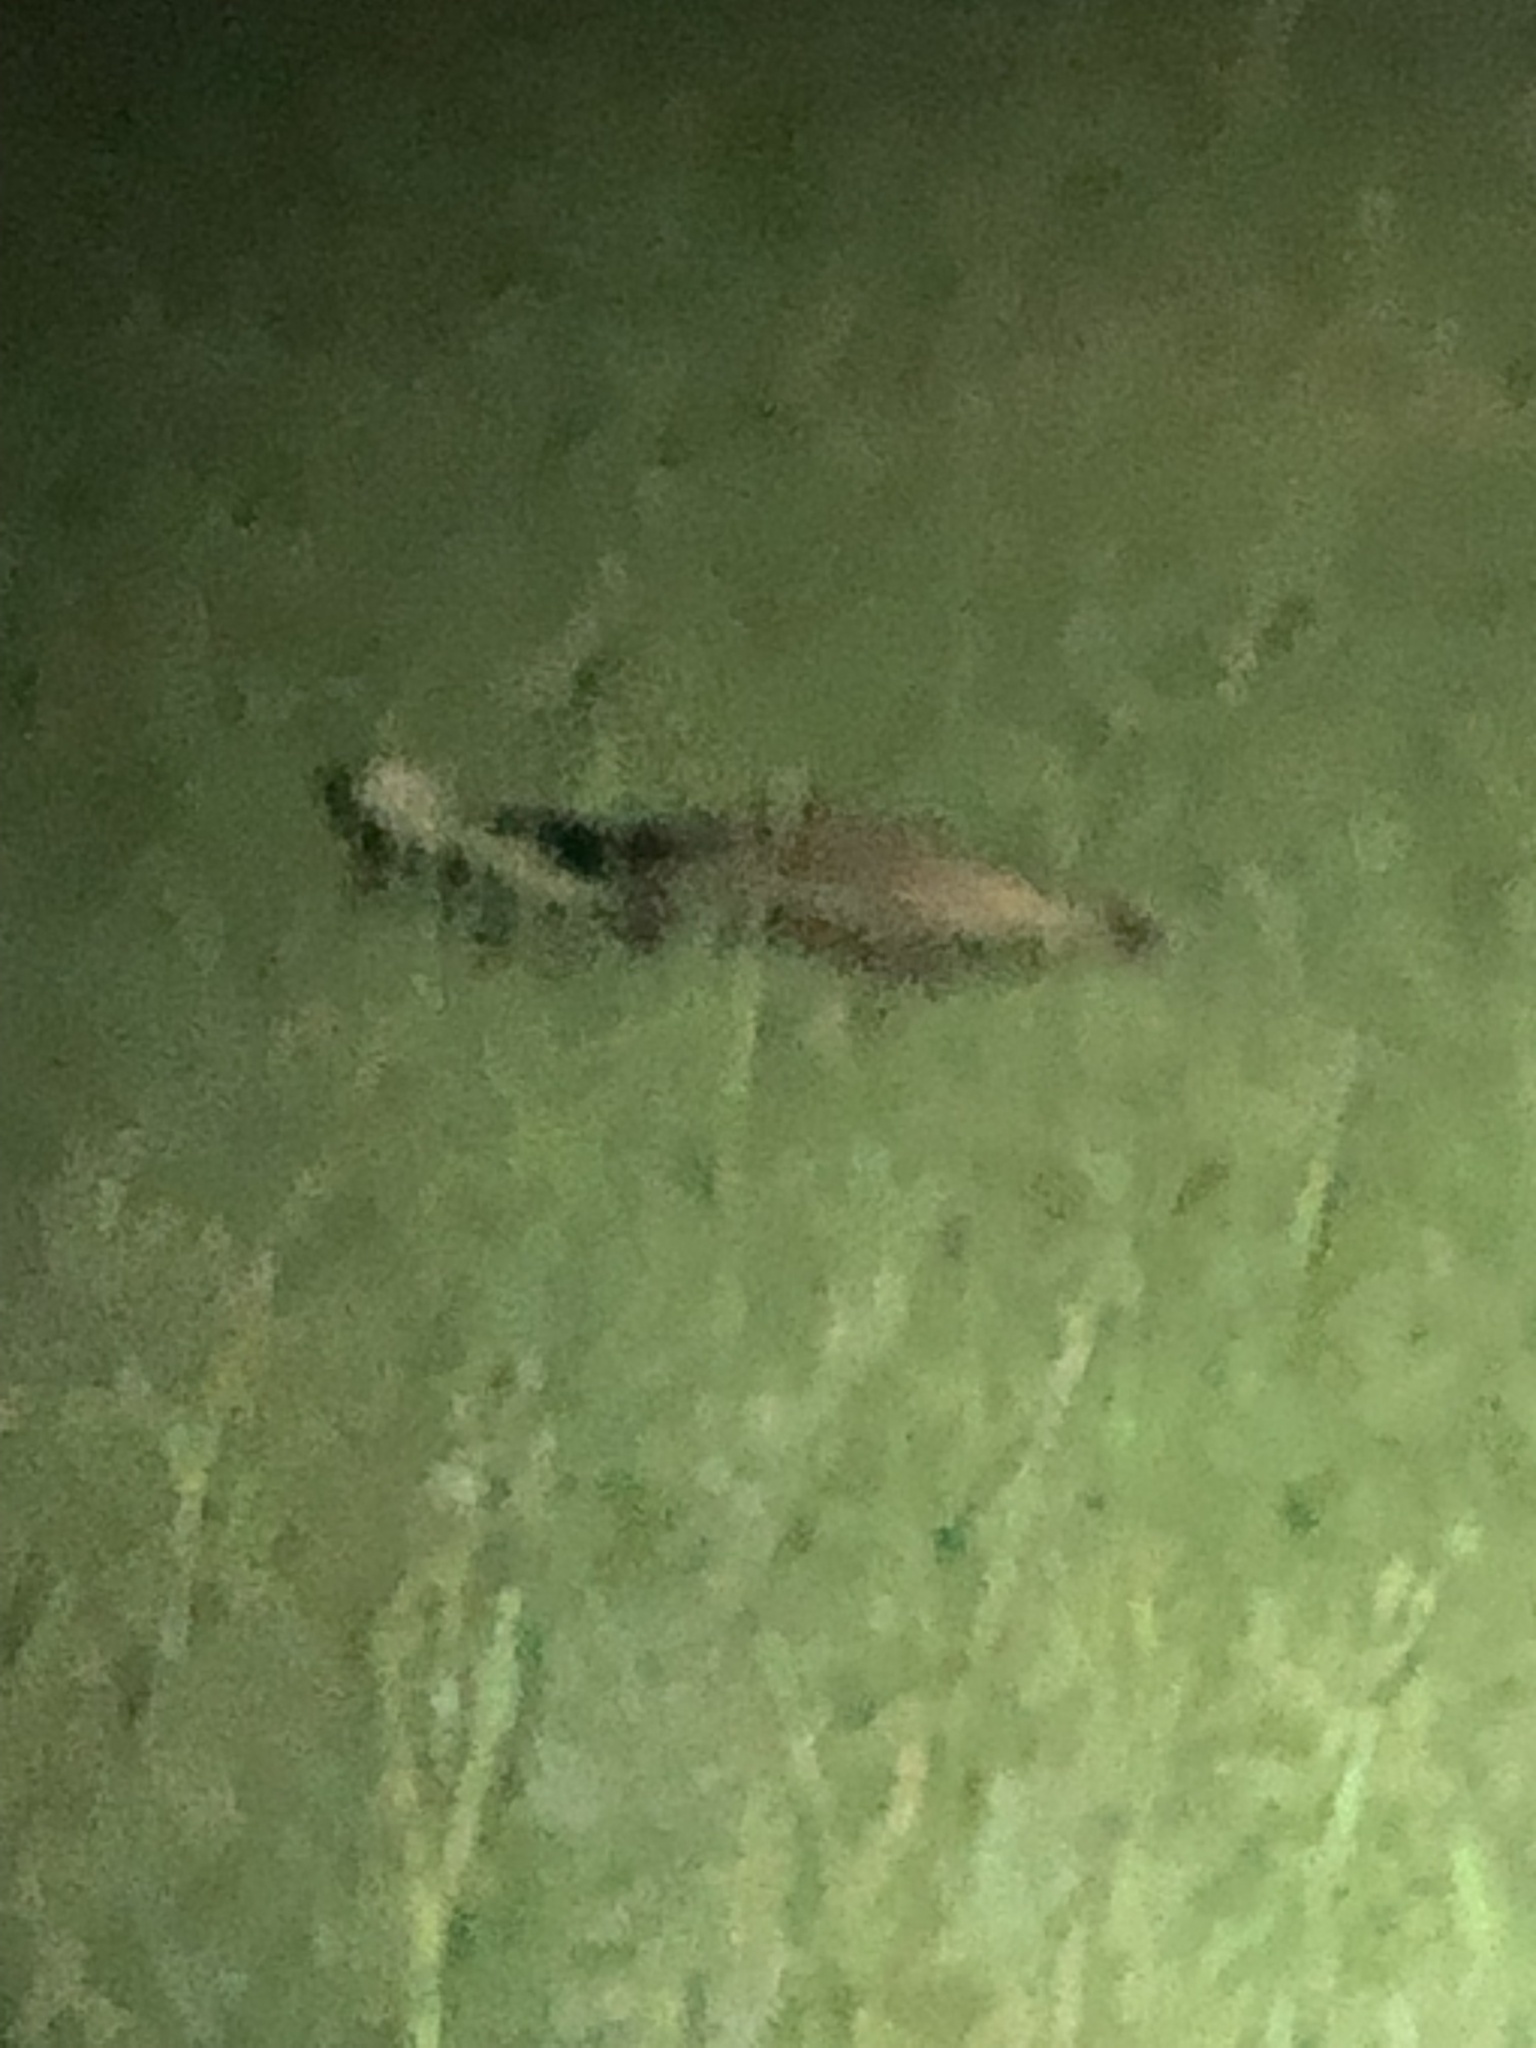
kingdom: Animalia
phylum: Chordata
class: Mammalia
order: Carnivora
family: Mephitidae
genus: Mephitis
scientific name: Mephitis mephitis
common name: Striped skunk
